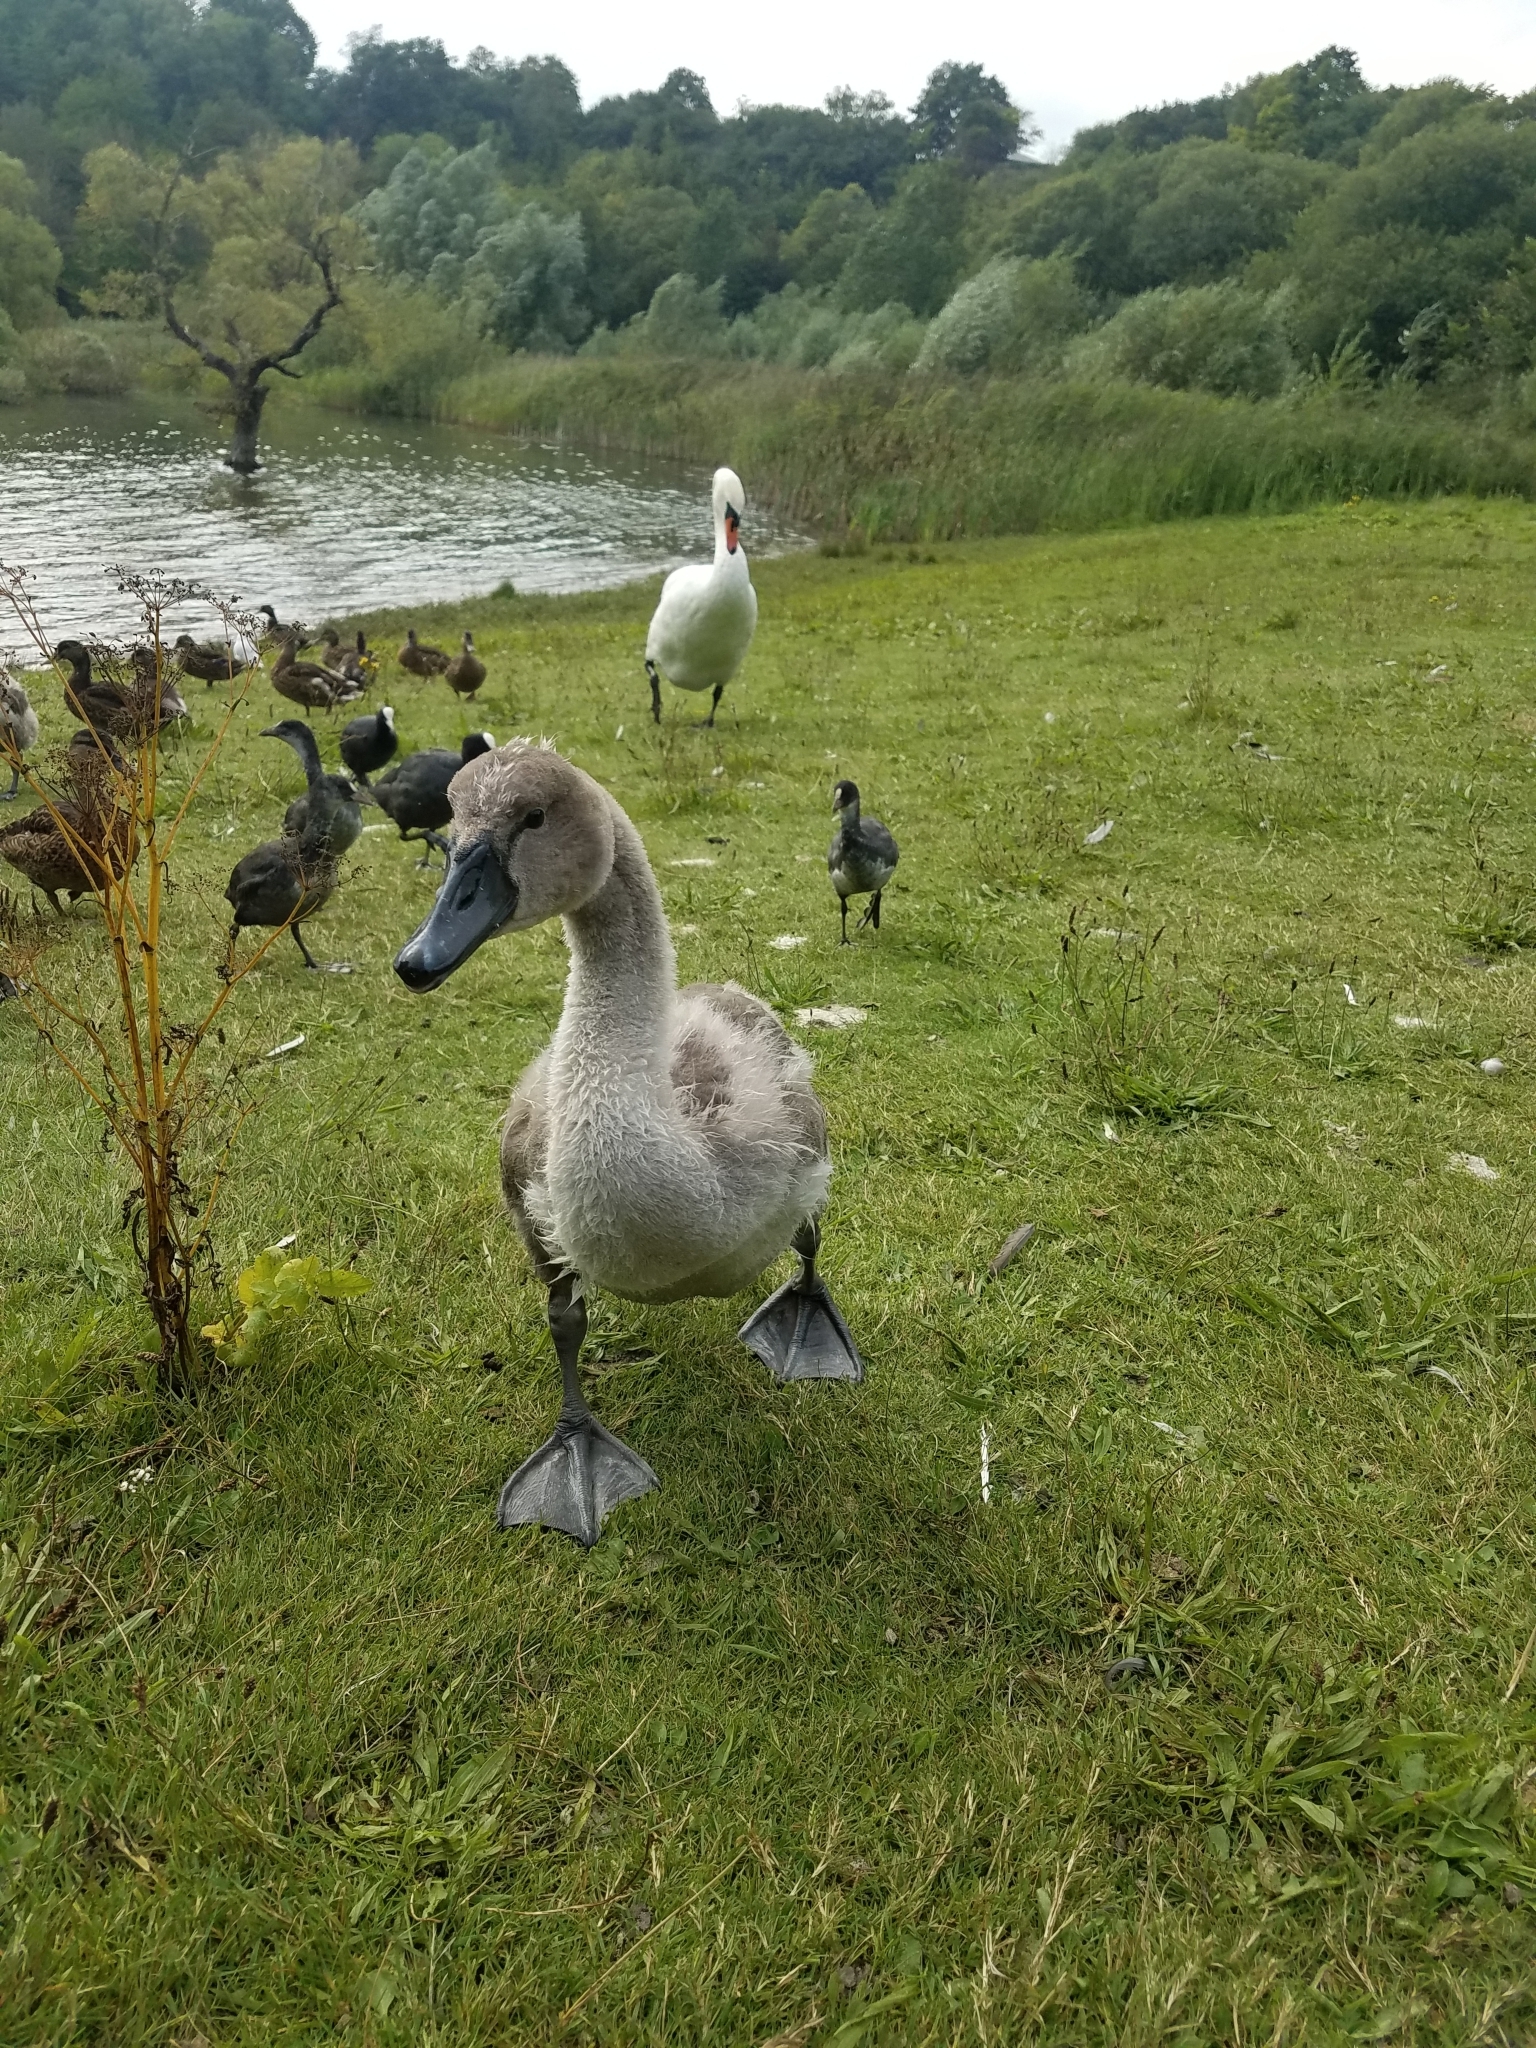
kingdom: Animalia
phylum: Chordata
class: Aves
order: Anseriformes
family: Anatidae
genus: Cygnus
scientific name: Cygnus olor
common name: Mute swan
